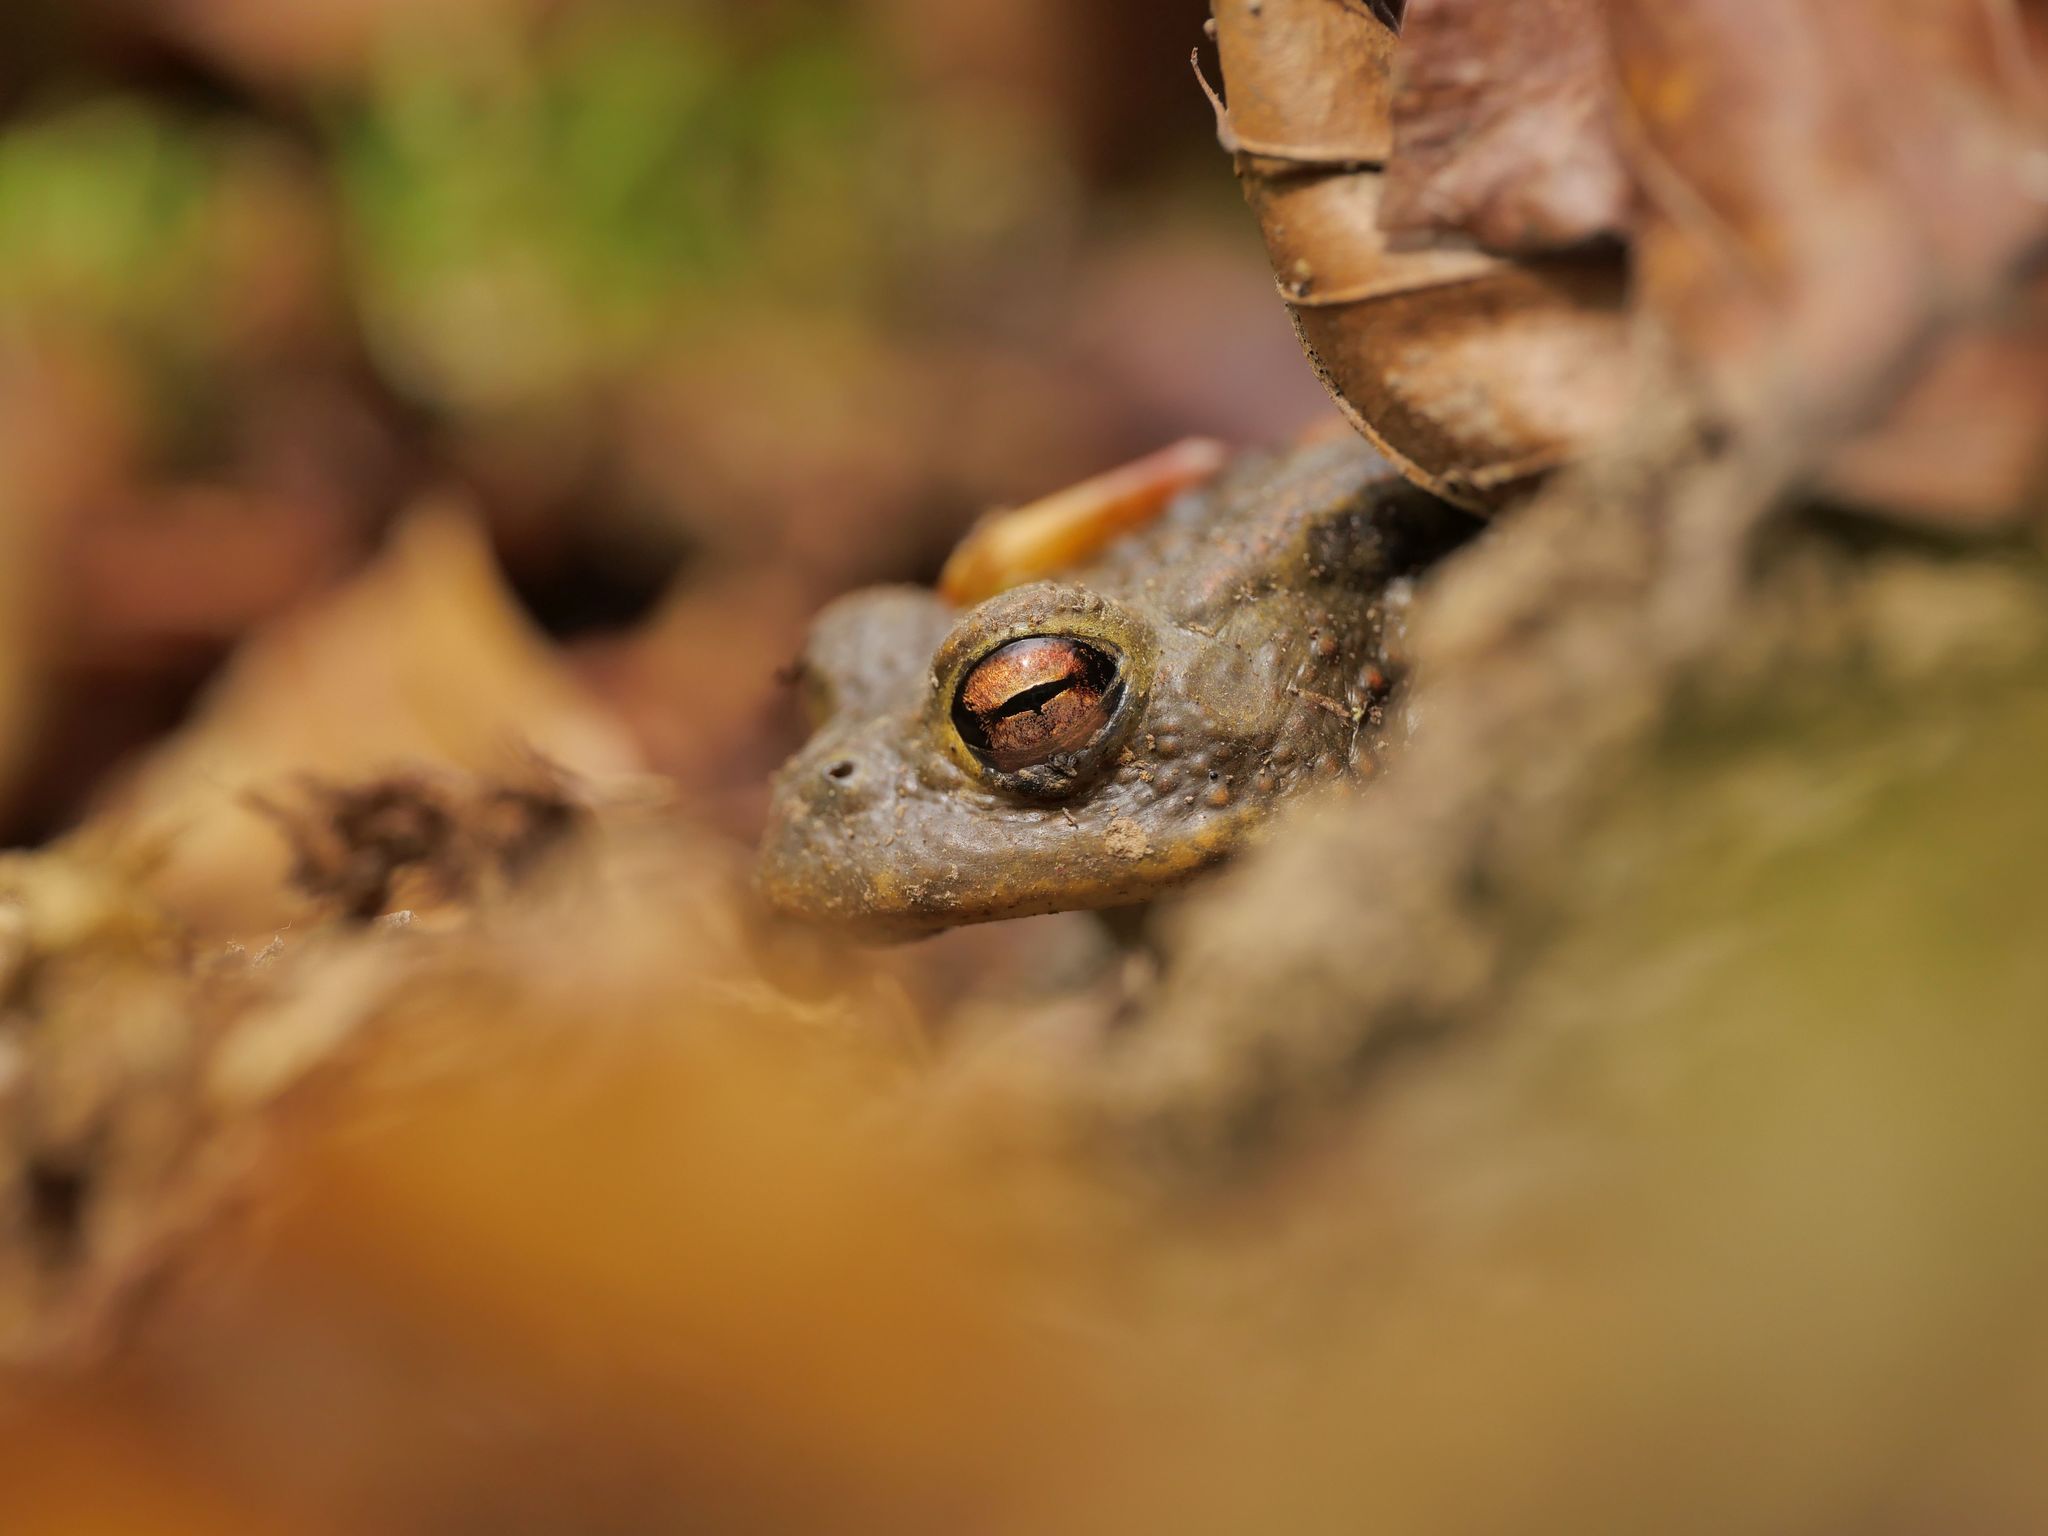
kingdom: Animalia
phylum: Chordata
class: Amphibia
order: Anura
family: Bufonidae
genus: Bufo
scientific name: Bufo bufo
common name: Common toad
